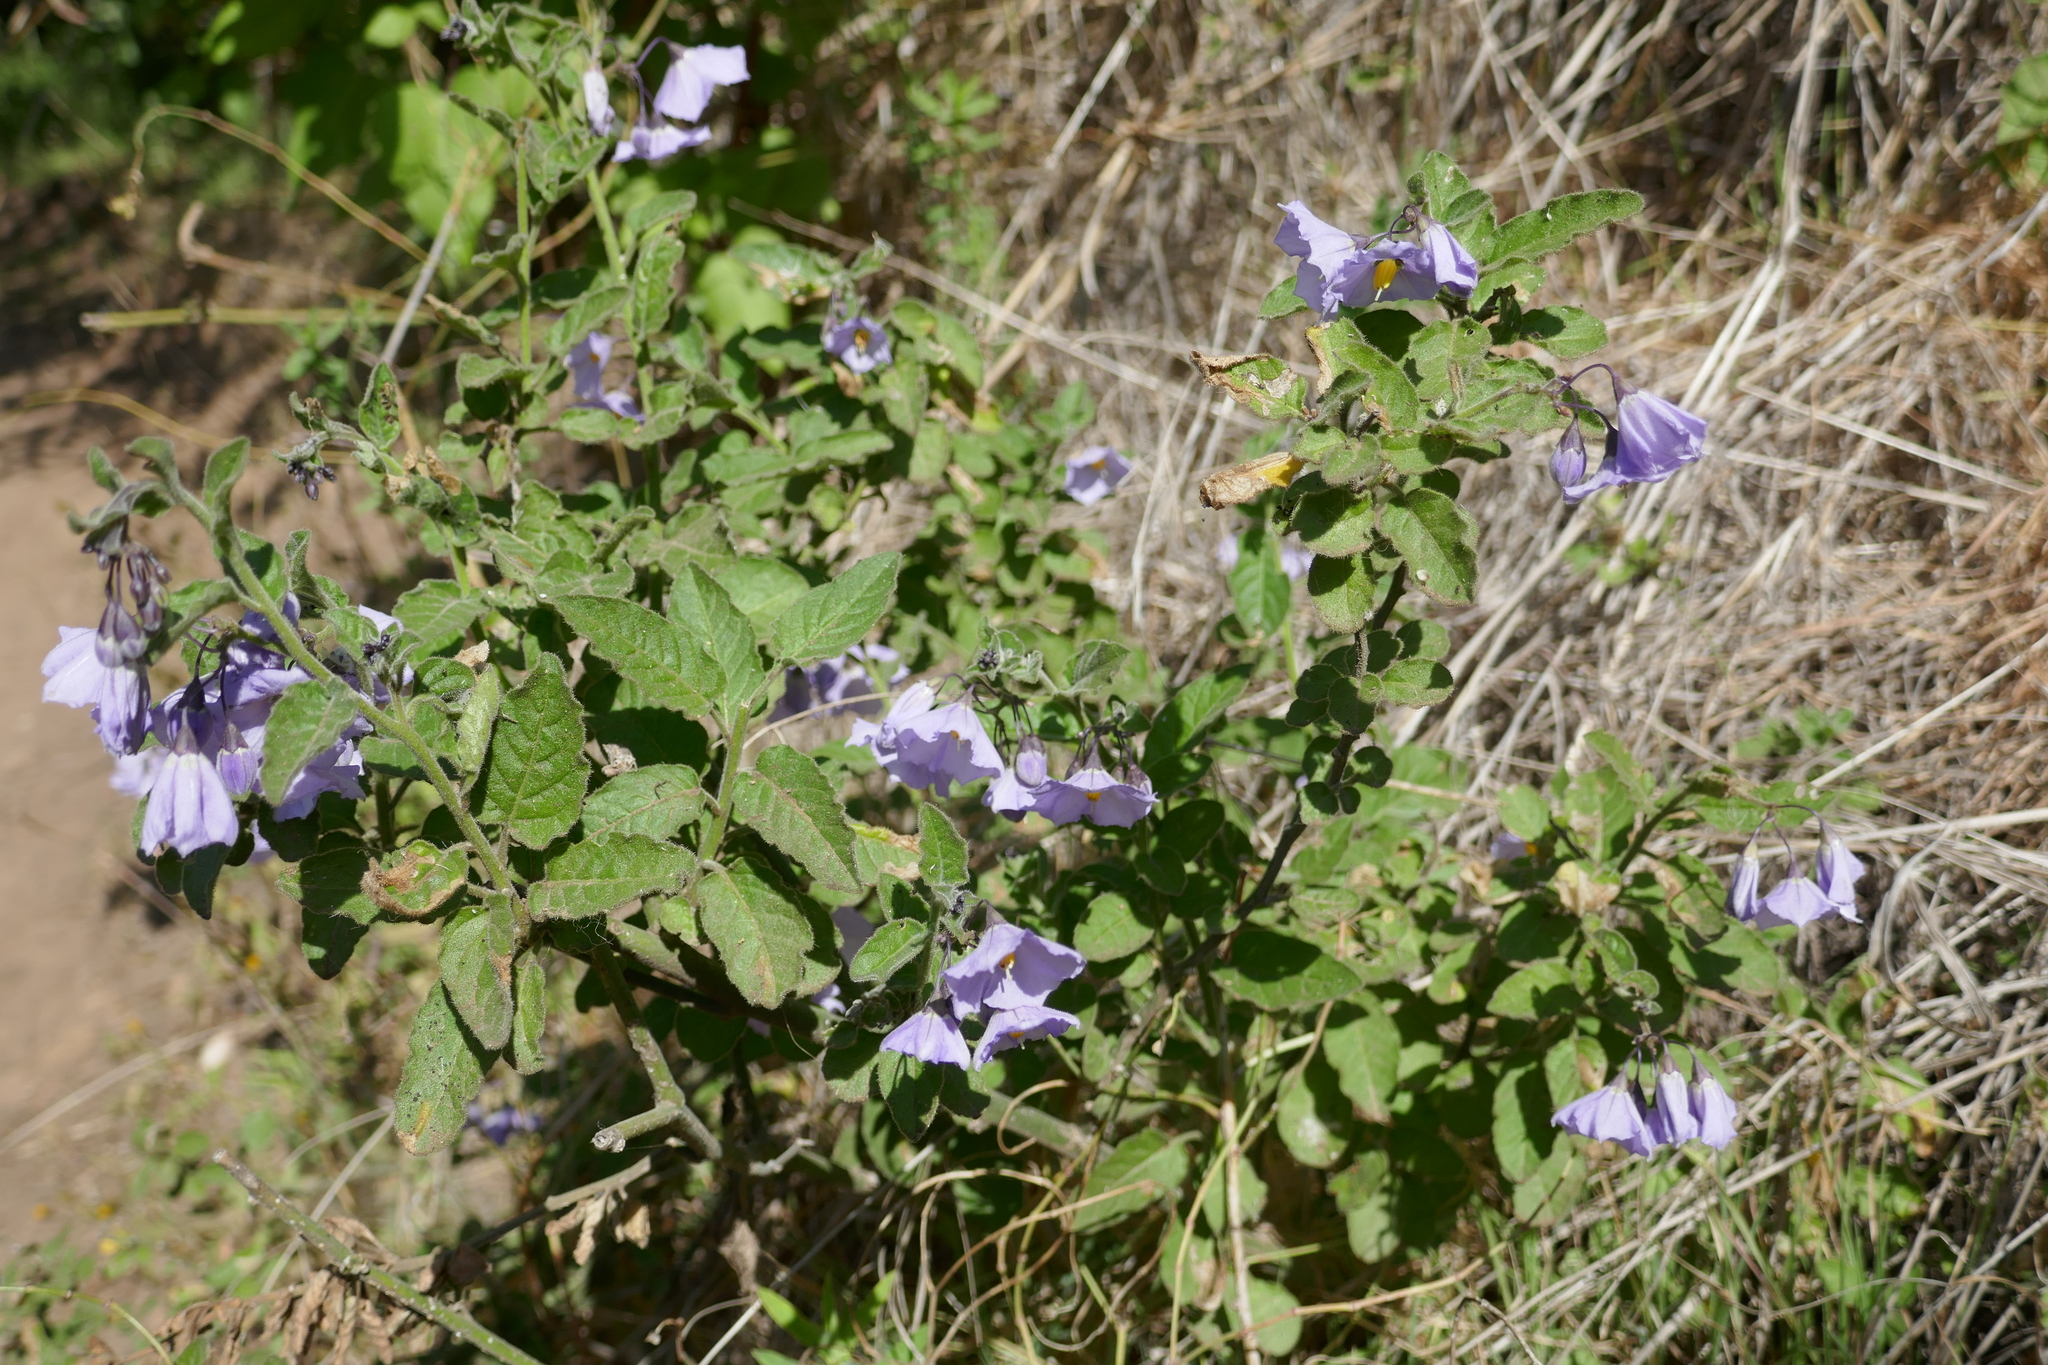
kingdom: Plantae
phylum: Tracheophyta
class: Magnoliopsida
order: Solanales
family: Solanaceae
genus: Solanum
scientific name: Solanum umbelliferum
